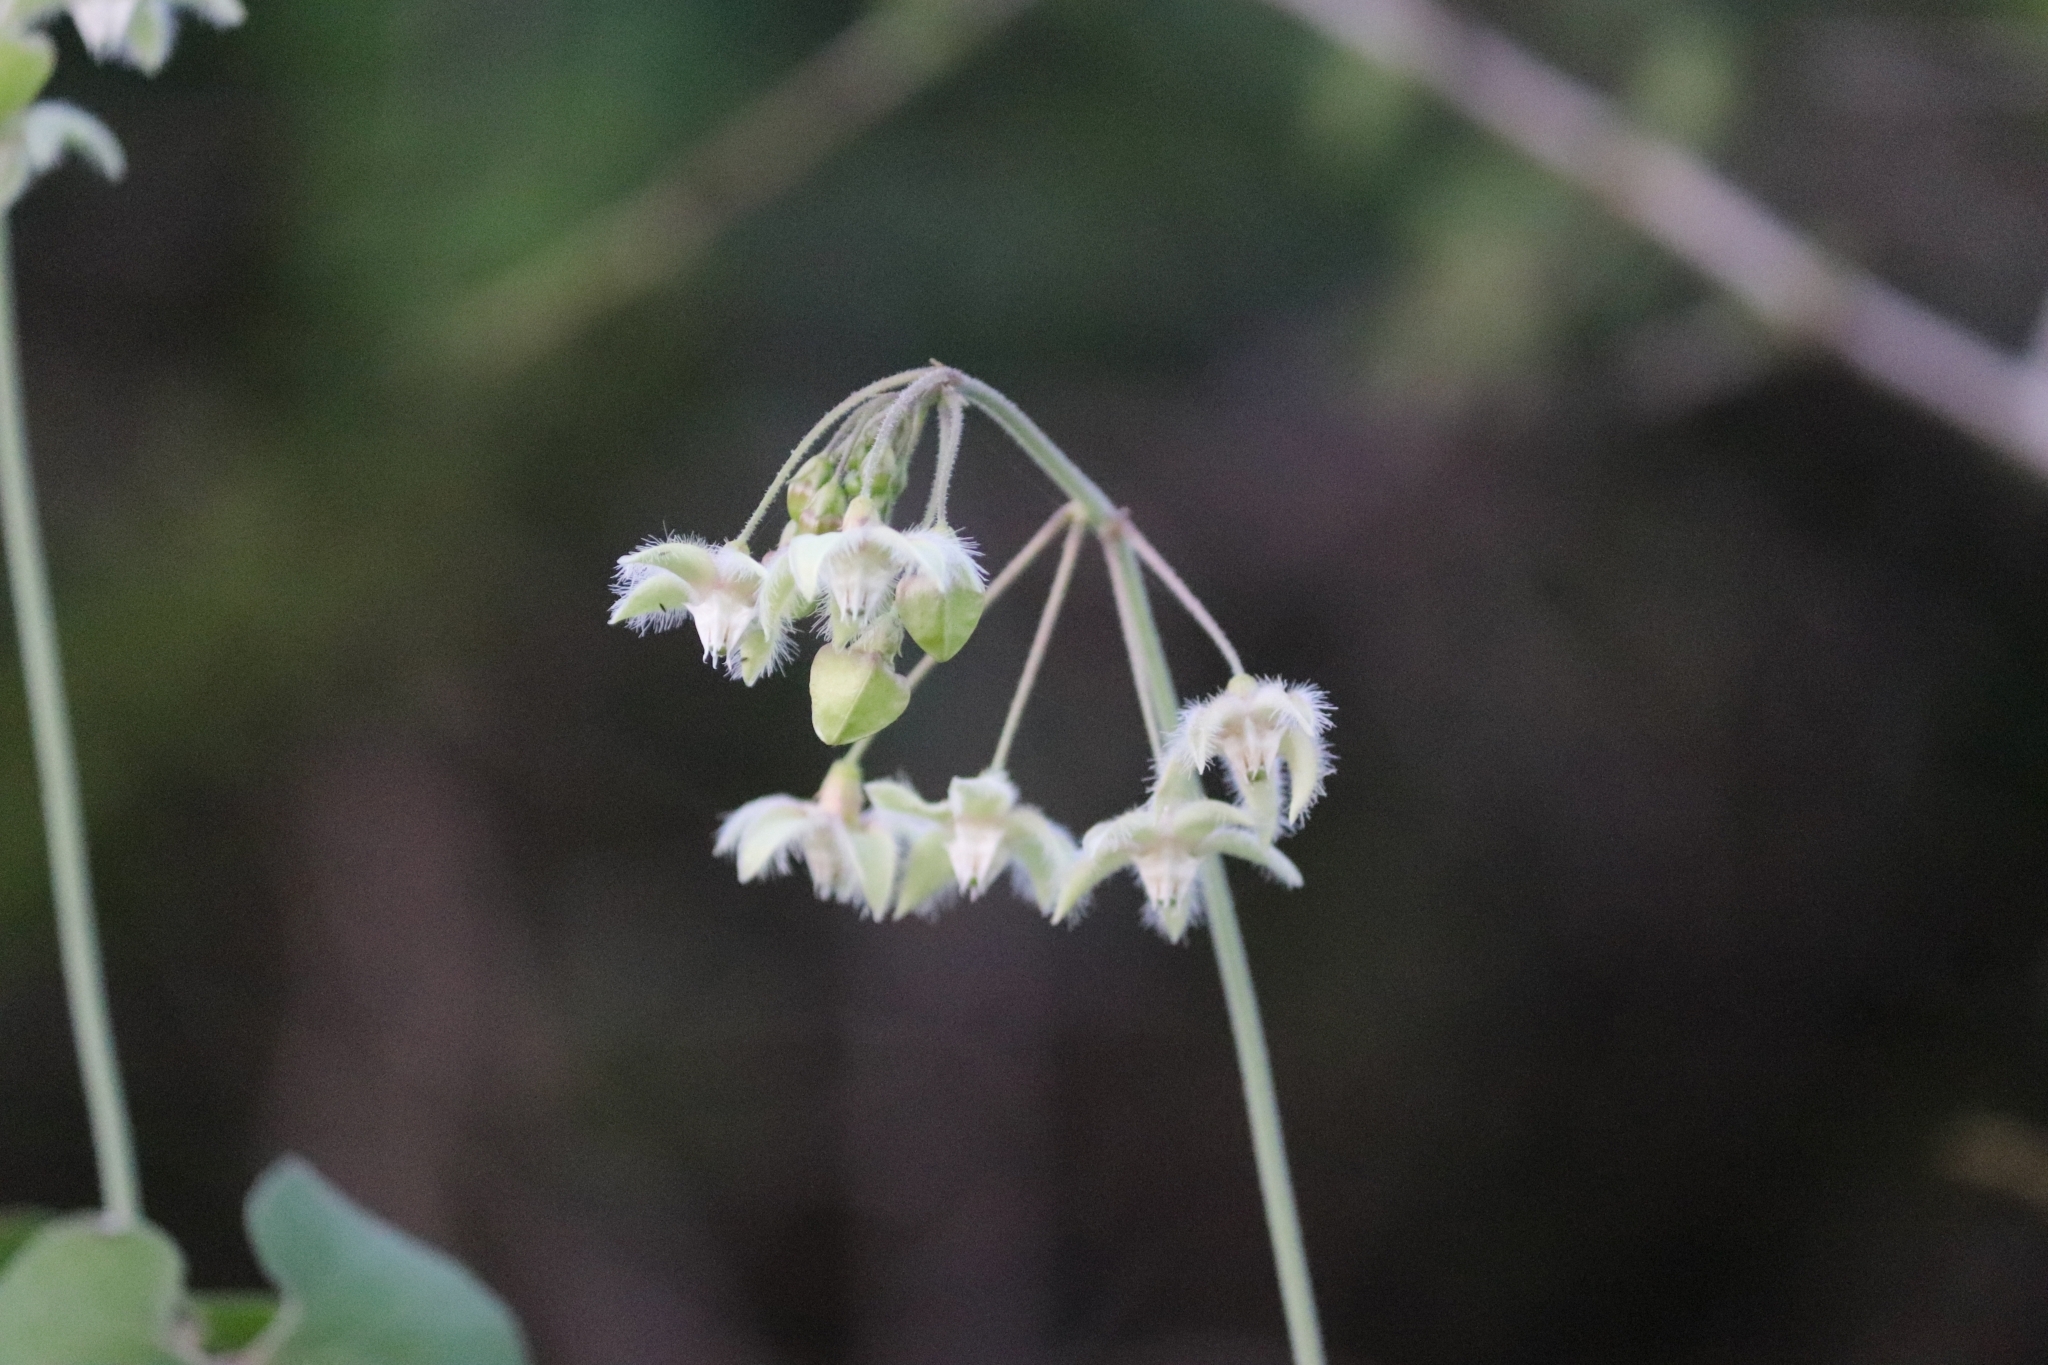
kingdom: Plantae
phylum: Tracheophyta
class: Magnoliopsida
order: Gentianales
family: Apocynaceae
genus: Pergularia
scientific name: Pergularia daemia
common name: Trellis-vine
